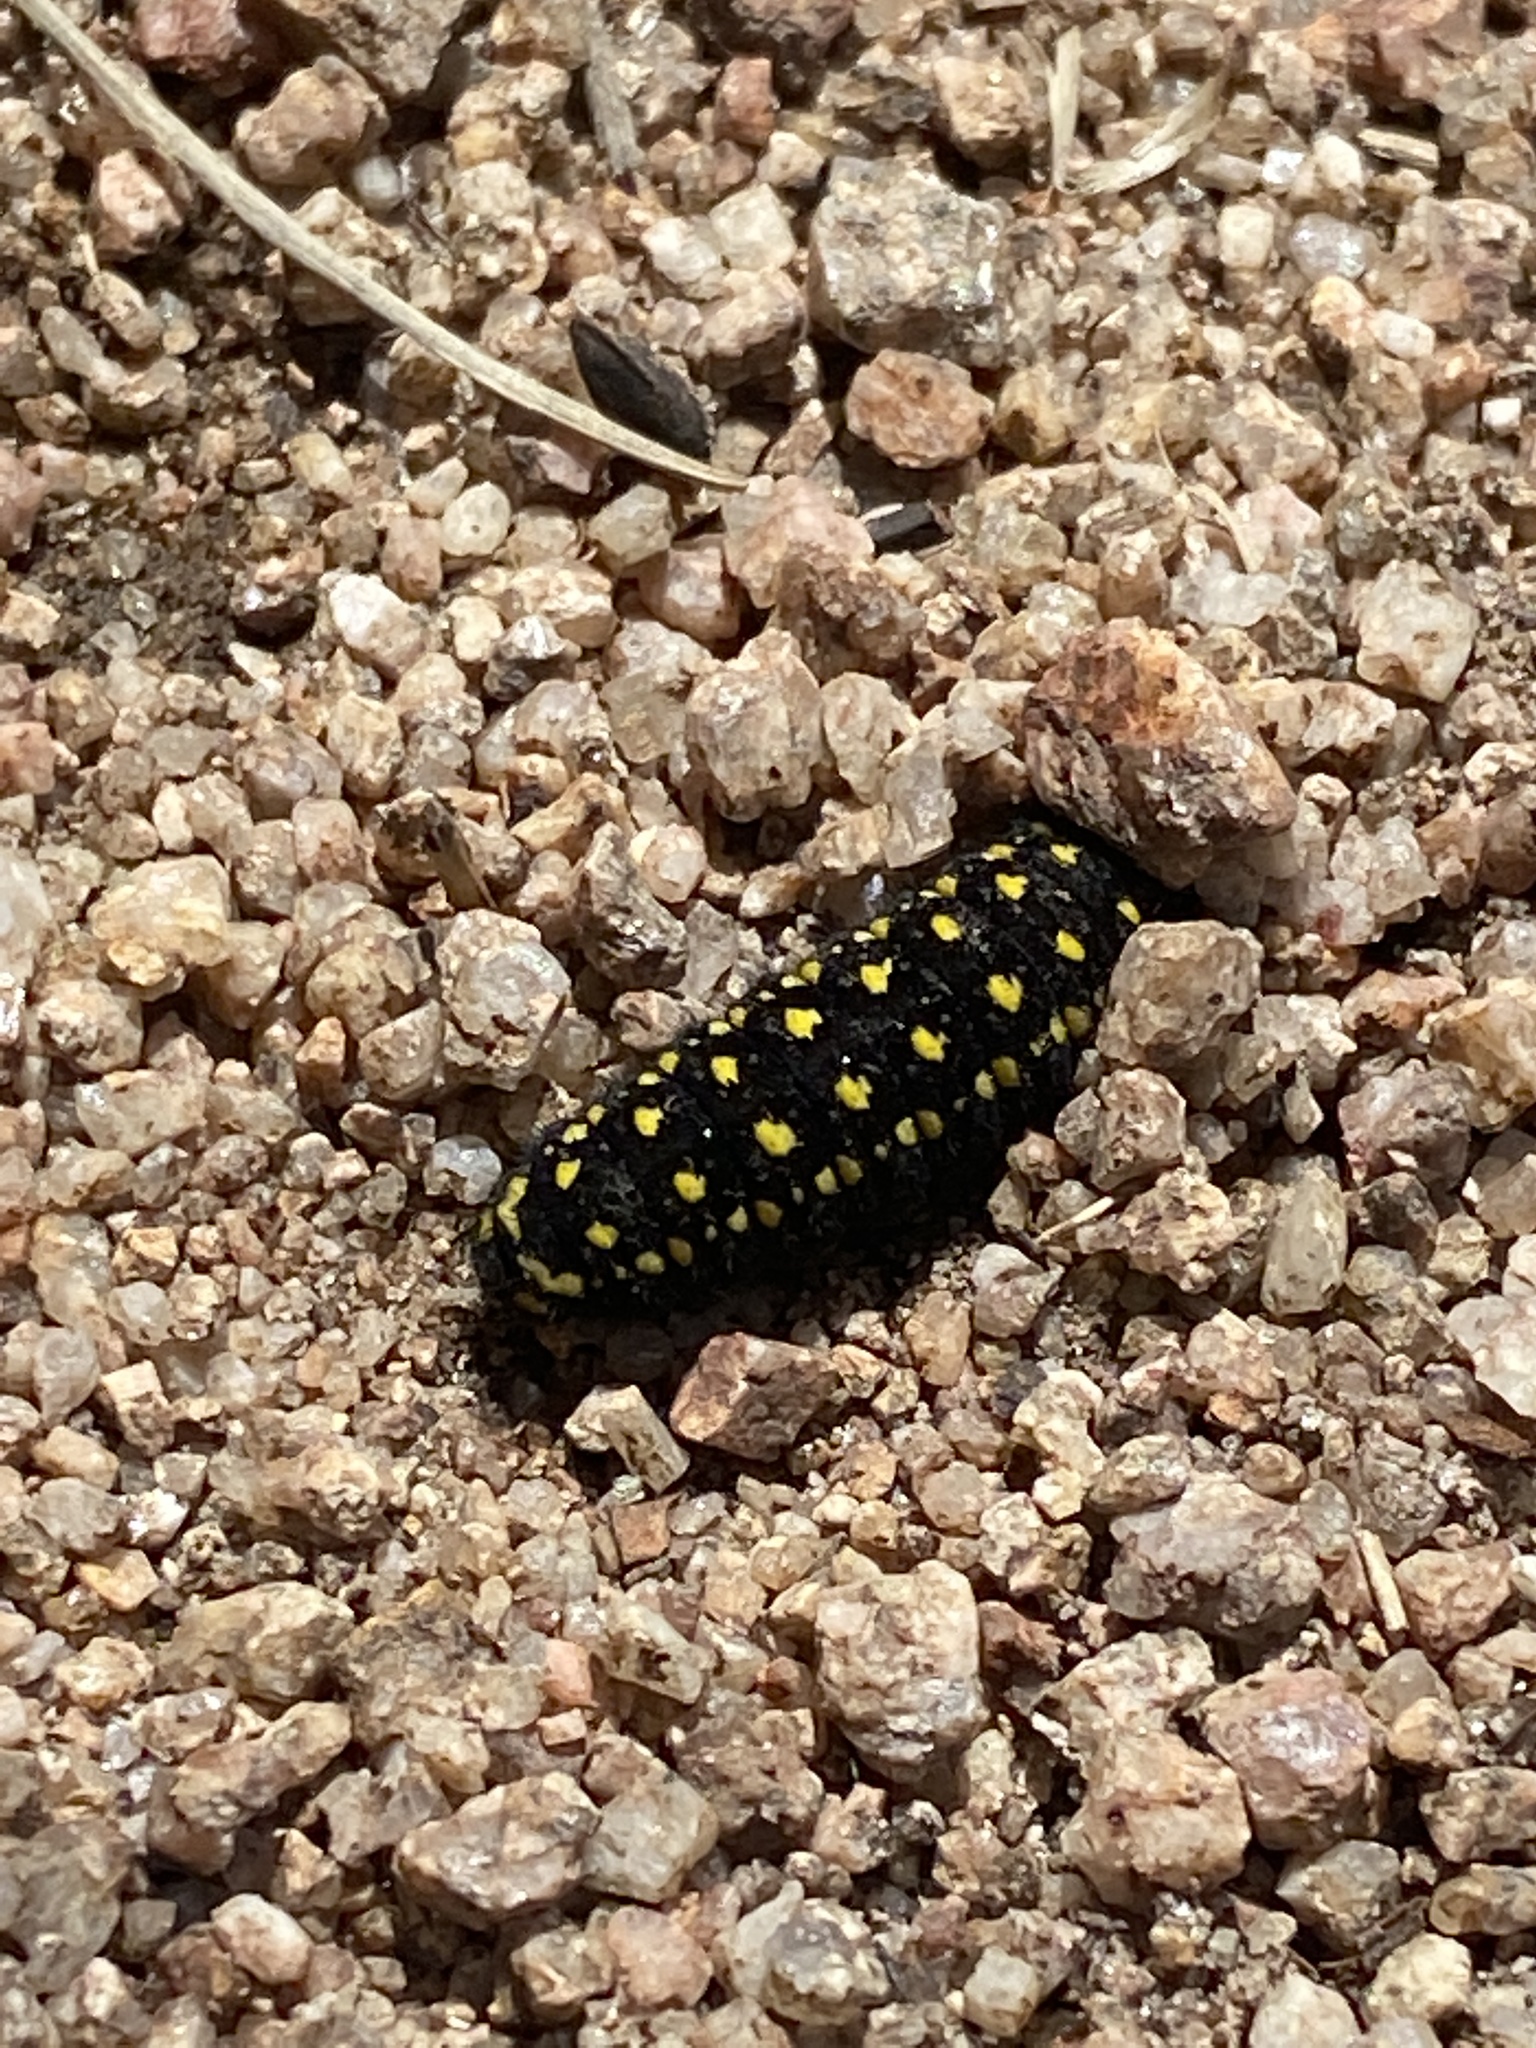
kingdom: Animalia
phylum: Arthropoda
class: Insecta
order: Lepidoptera
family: Papilionidae
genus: Parnassius
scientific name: Parnassius smintheus
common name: Mountain parnassian
